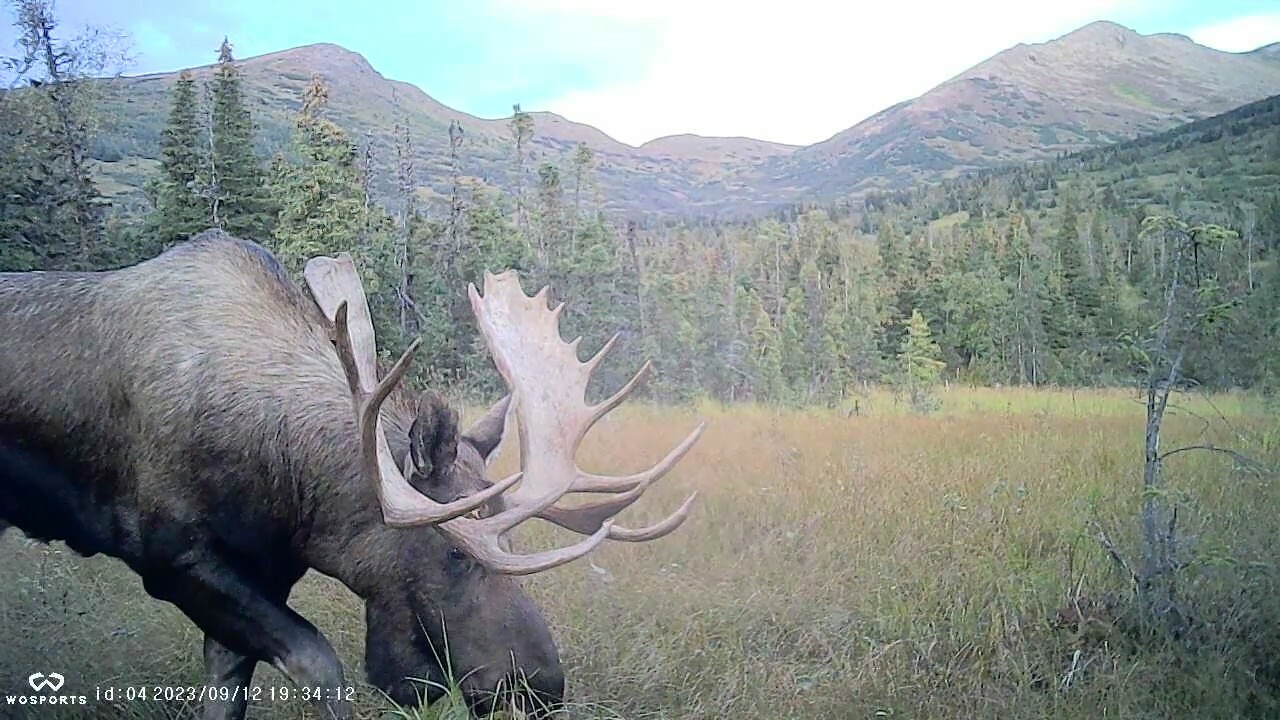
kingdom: Animalia
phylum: Chordata
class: Mammalia
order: Artiodactyla
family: Cervidae
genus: Alces
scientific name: Alces alces
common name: Moose
